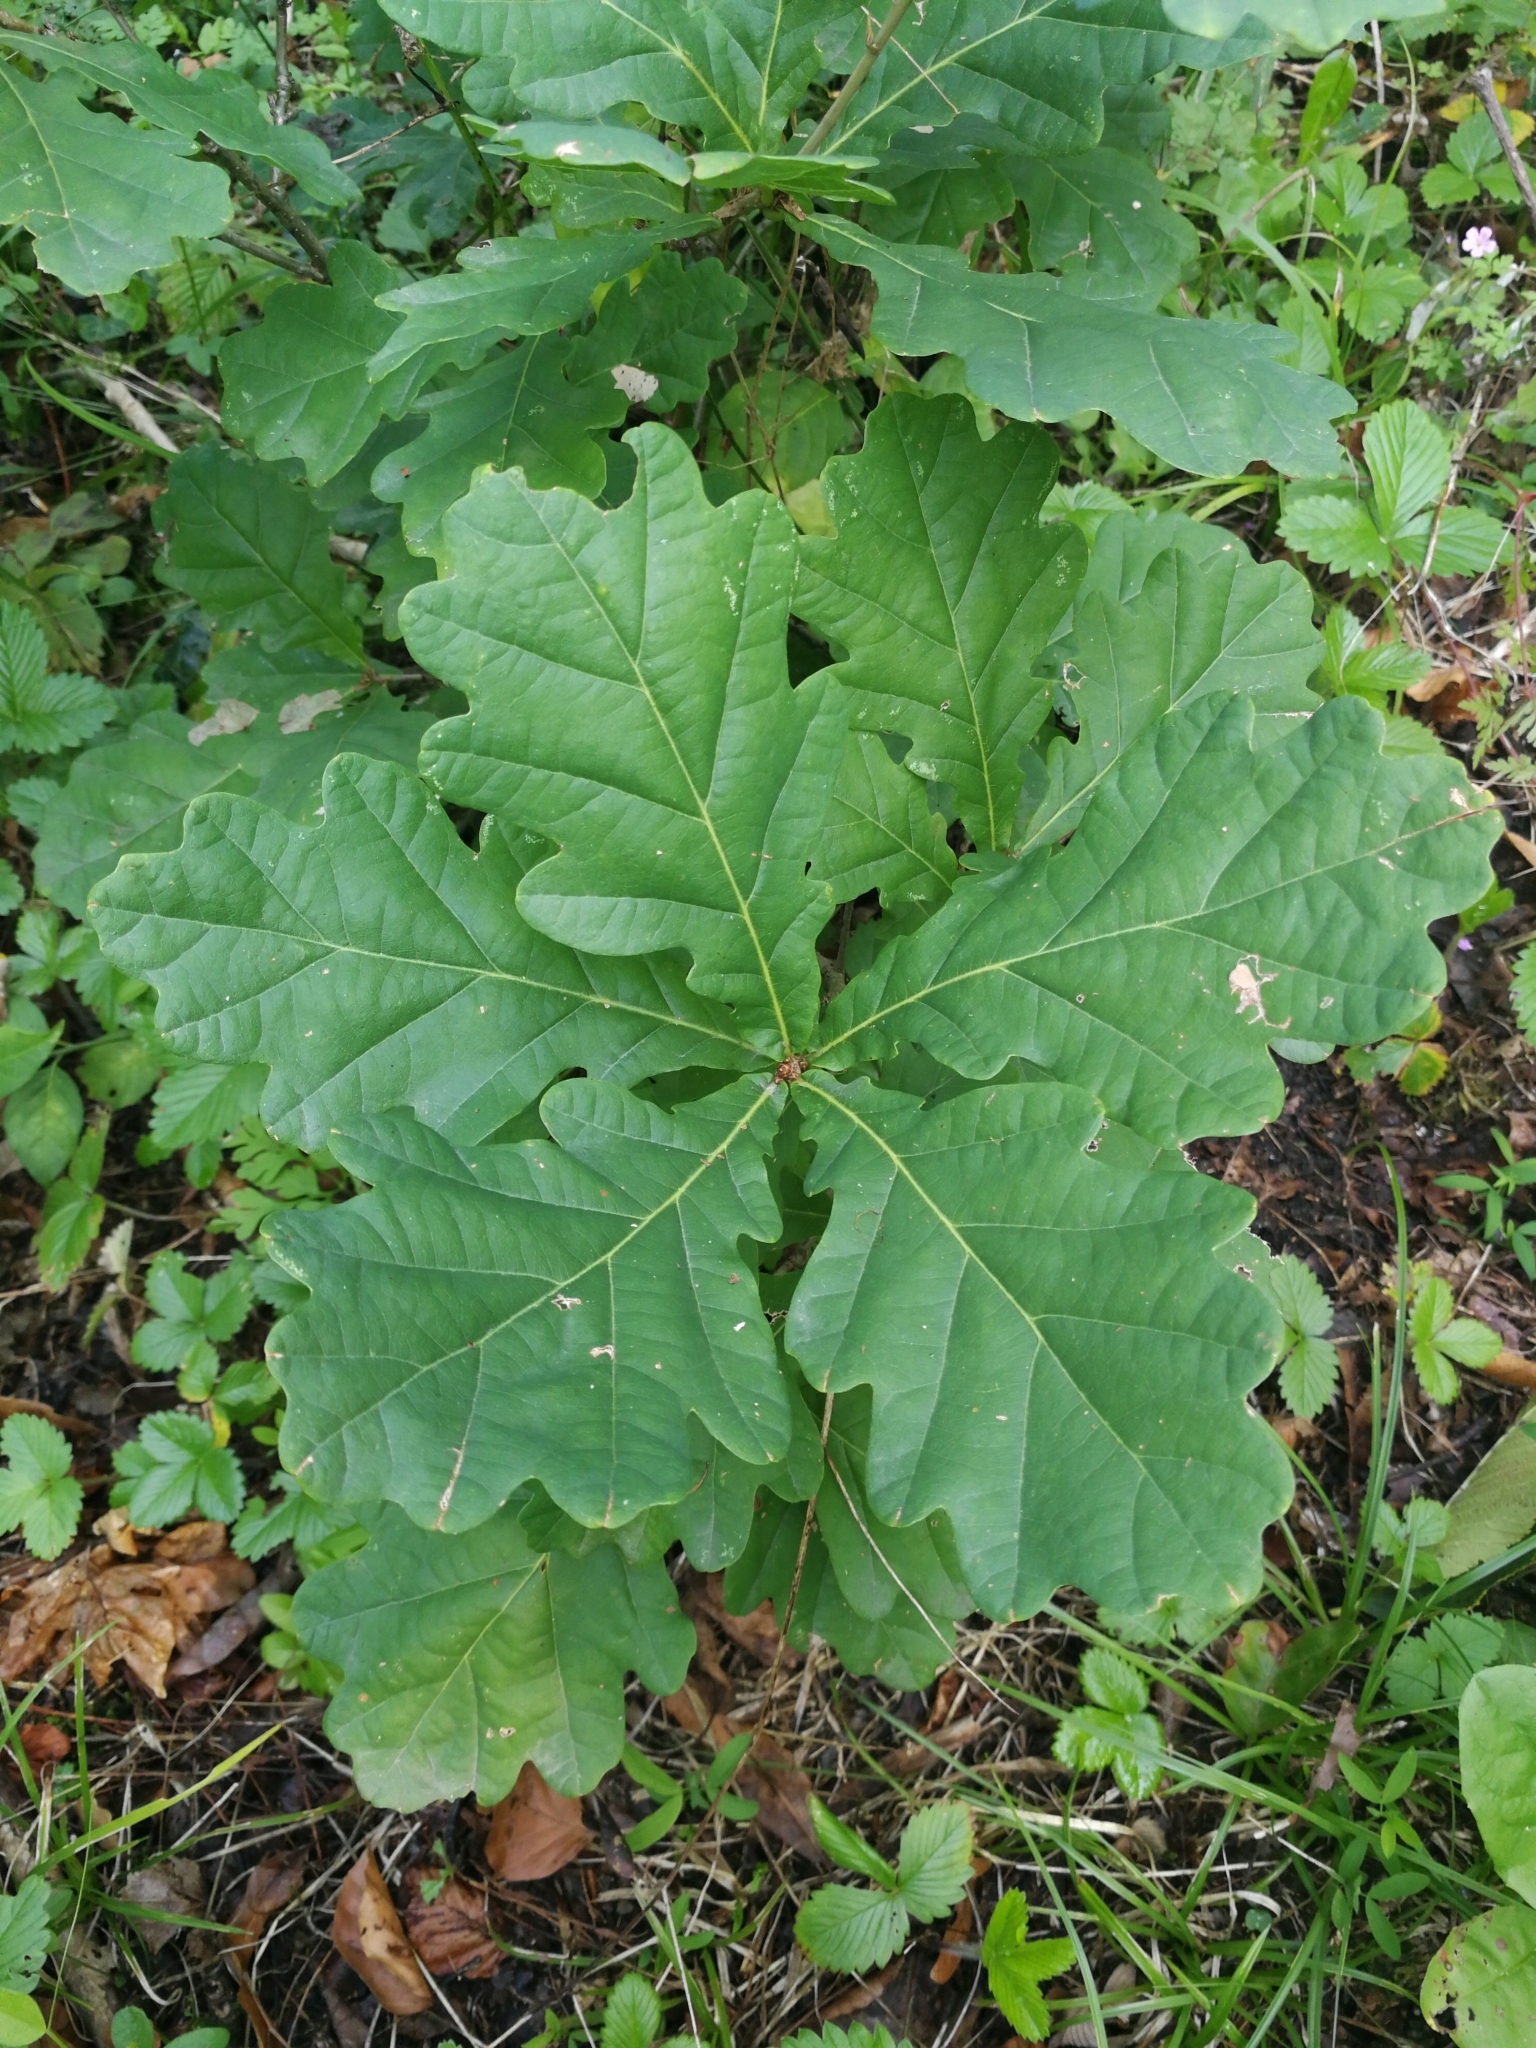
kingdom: Plantae
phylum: Tracheophyta
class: Magnoliopsida
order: Fagales
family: Fagaceae
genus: Quercus
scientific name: Quercus robur
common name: Pedunculate oak
